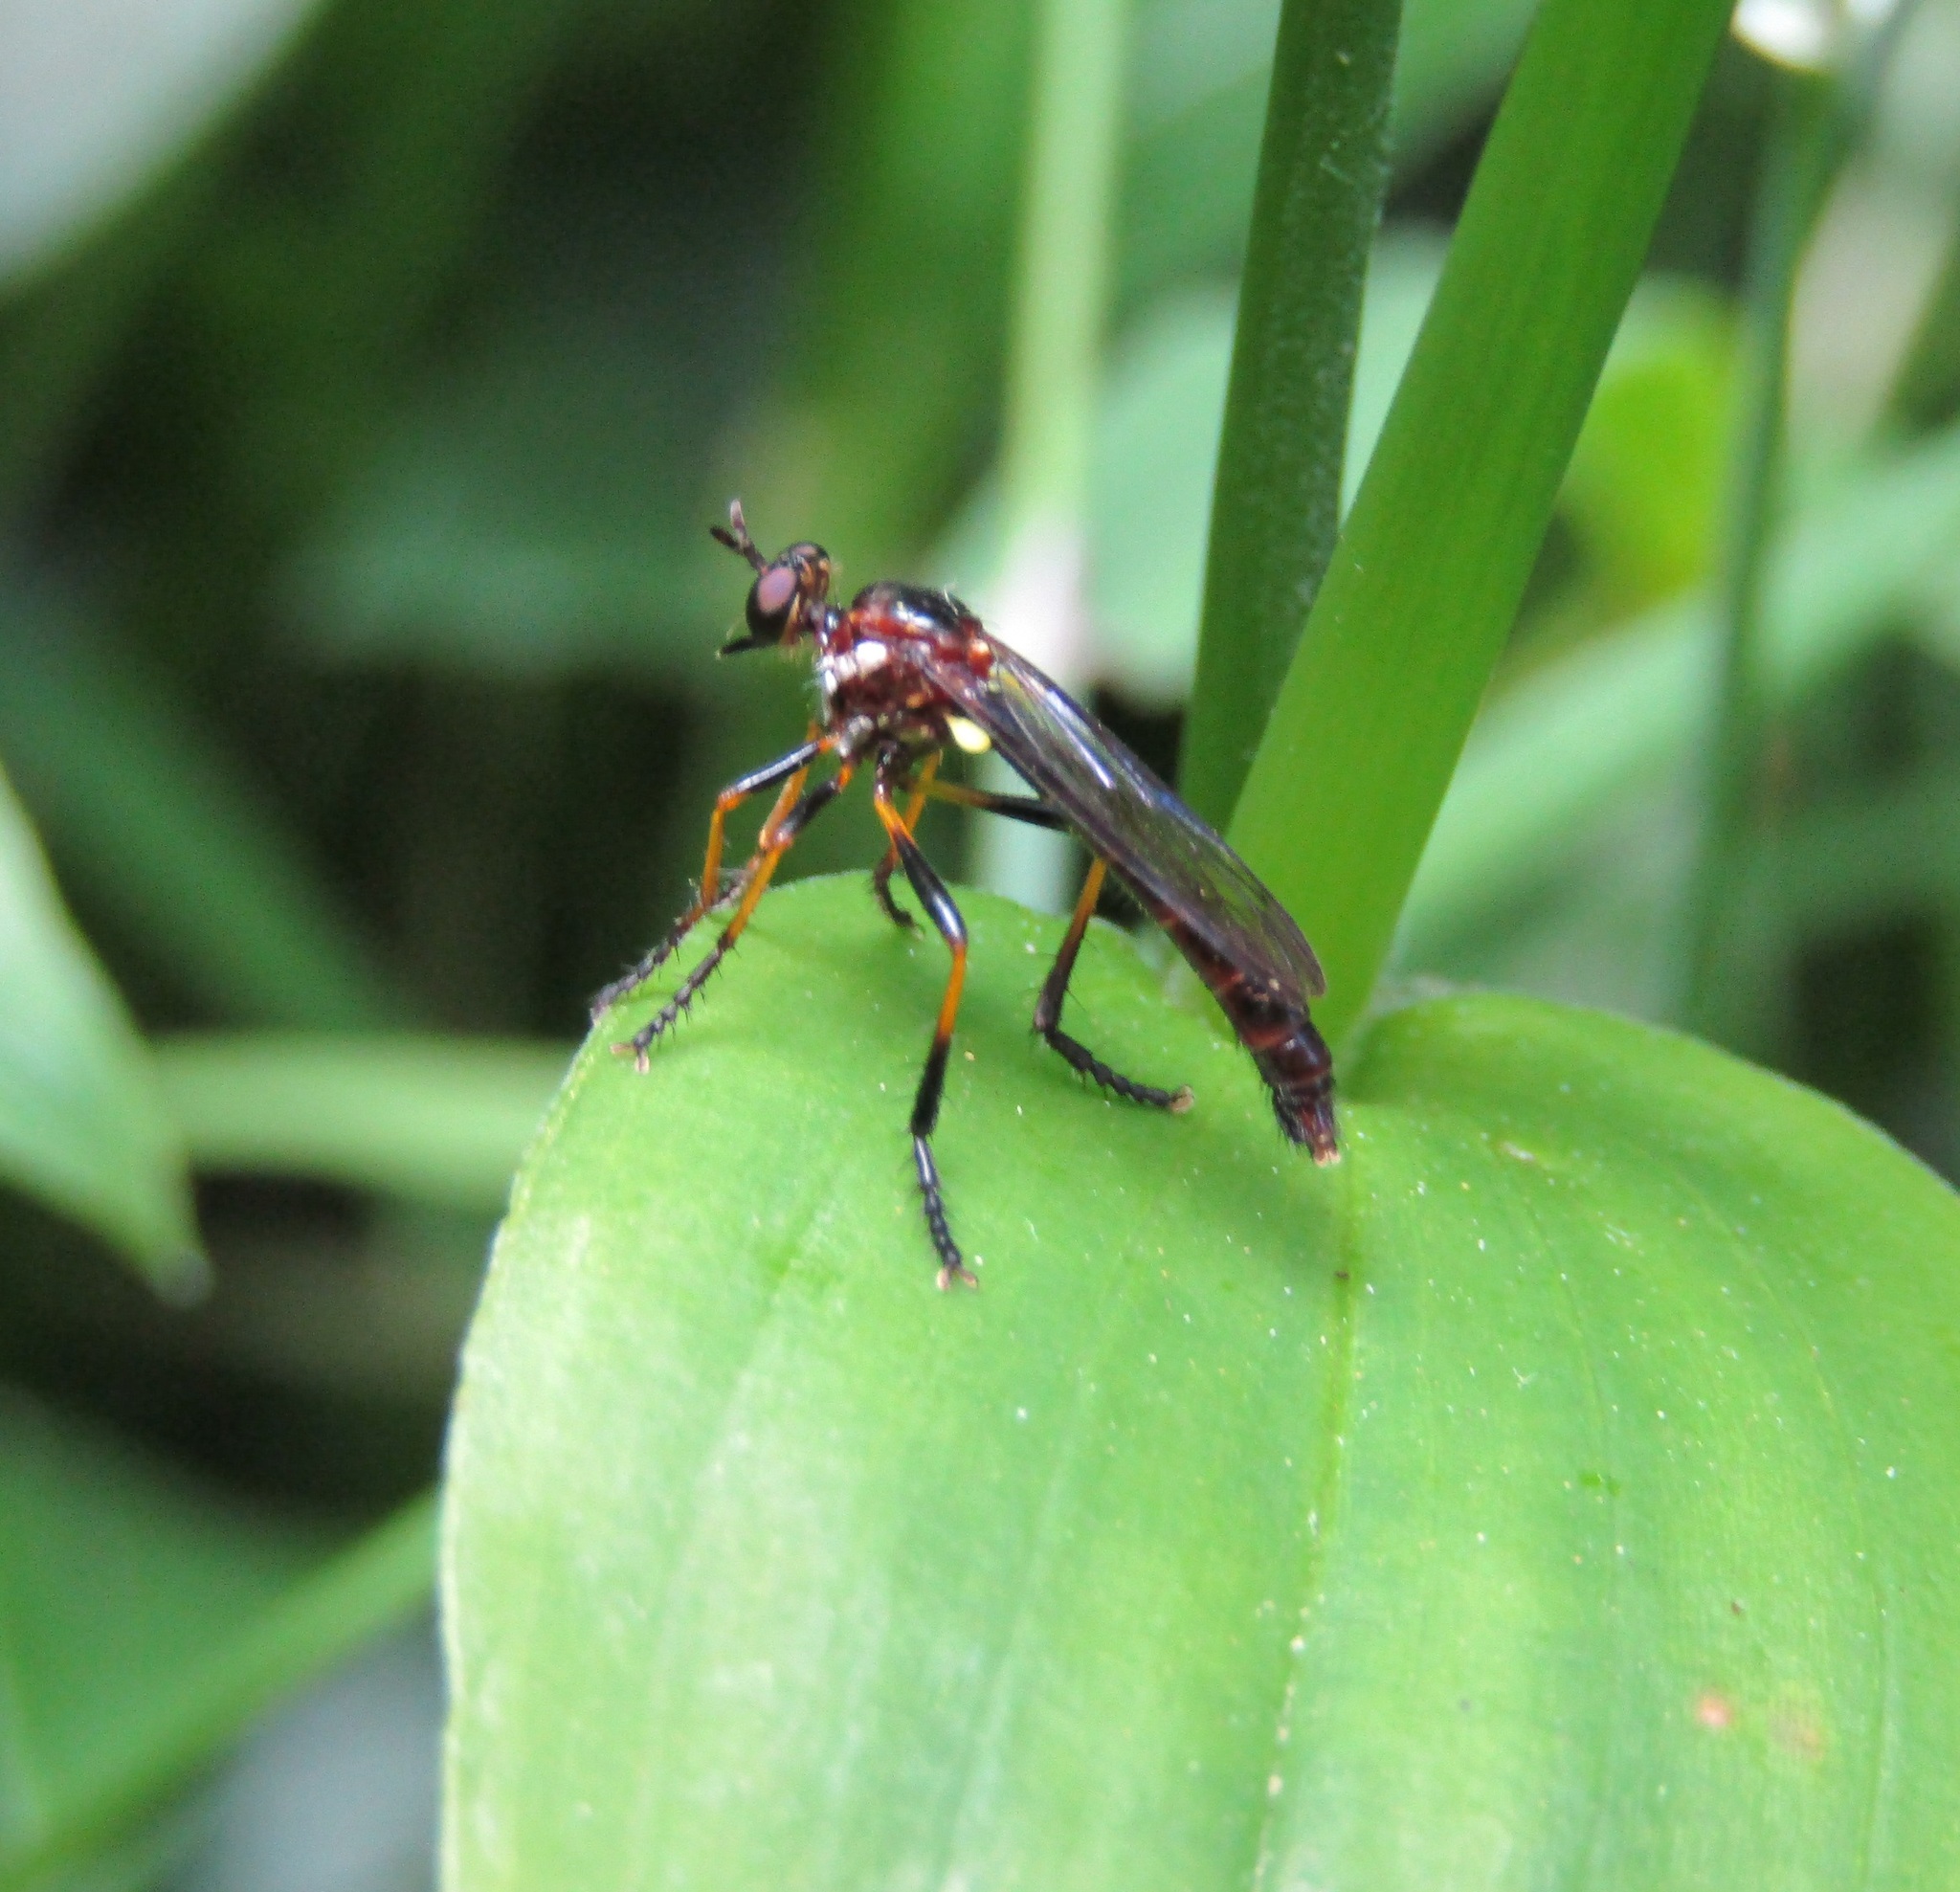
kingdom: Animalia
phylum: Arthropoda
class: Insecta
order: Diptera
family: Asilidae
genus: Saropogon
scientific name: Saropogon fascipes
